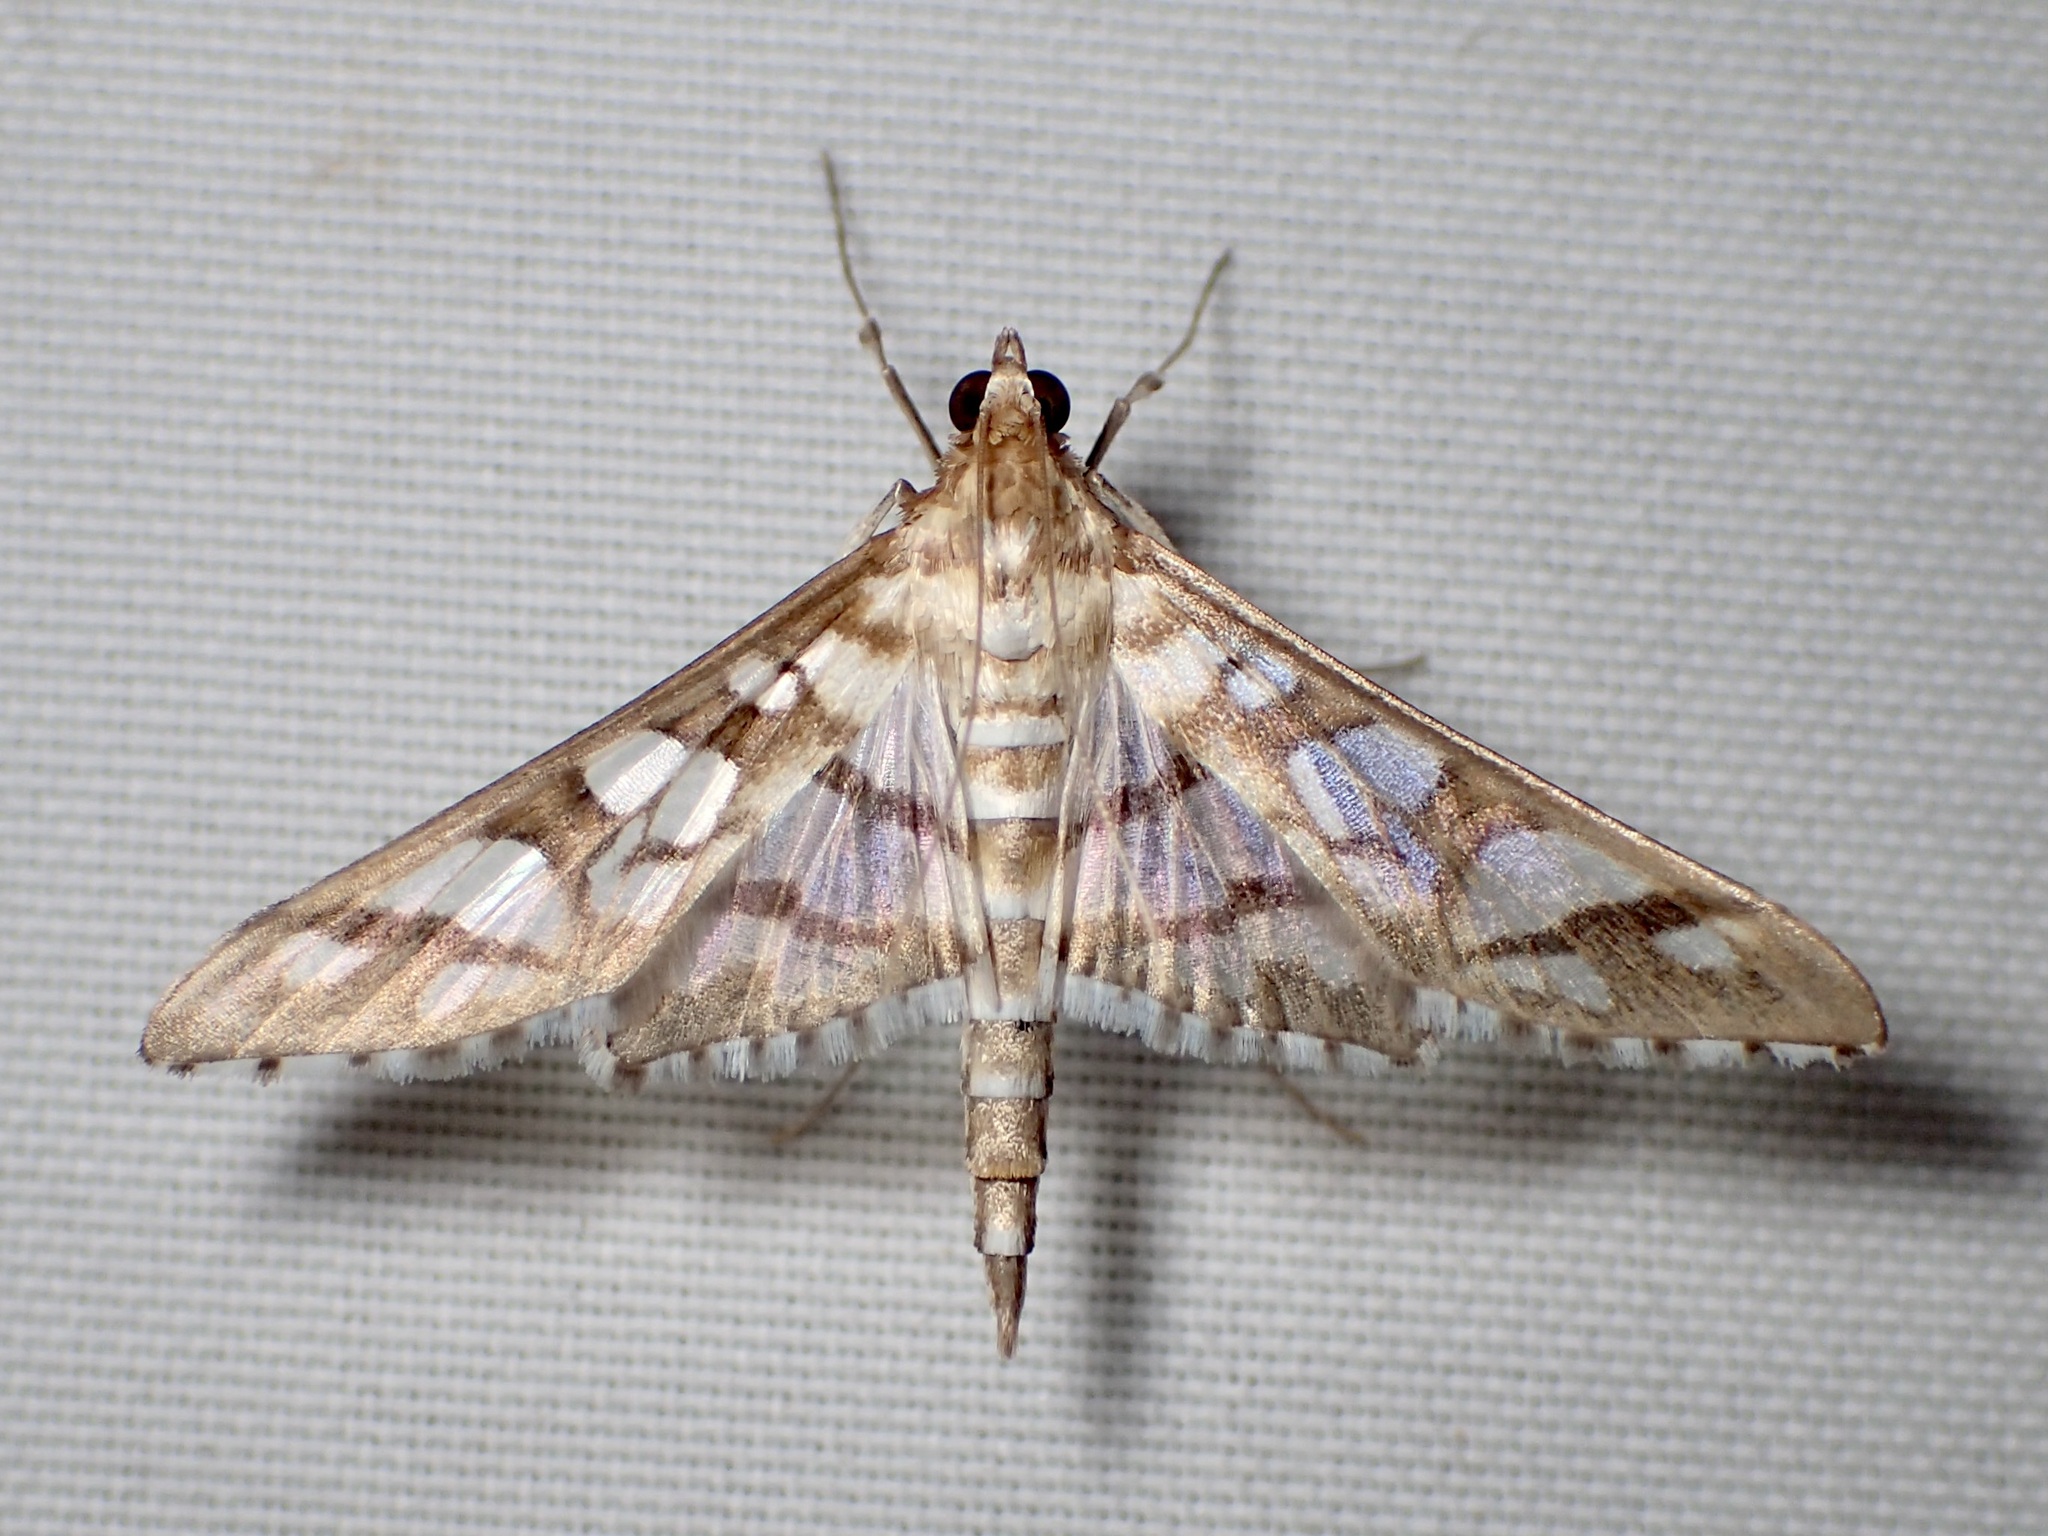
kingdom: Animalia
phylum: Arthropoda
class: Insecta
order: Lepidoptera
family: Crambidae
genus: Epipagis
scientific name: Epipagis disparilis
